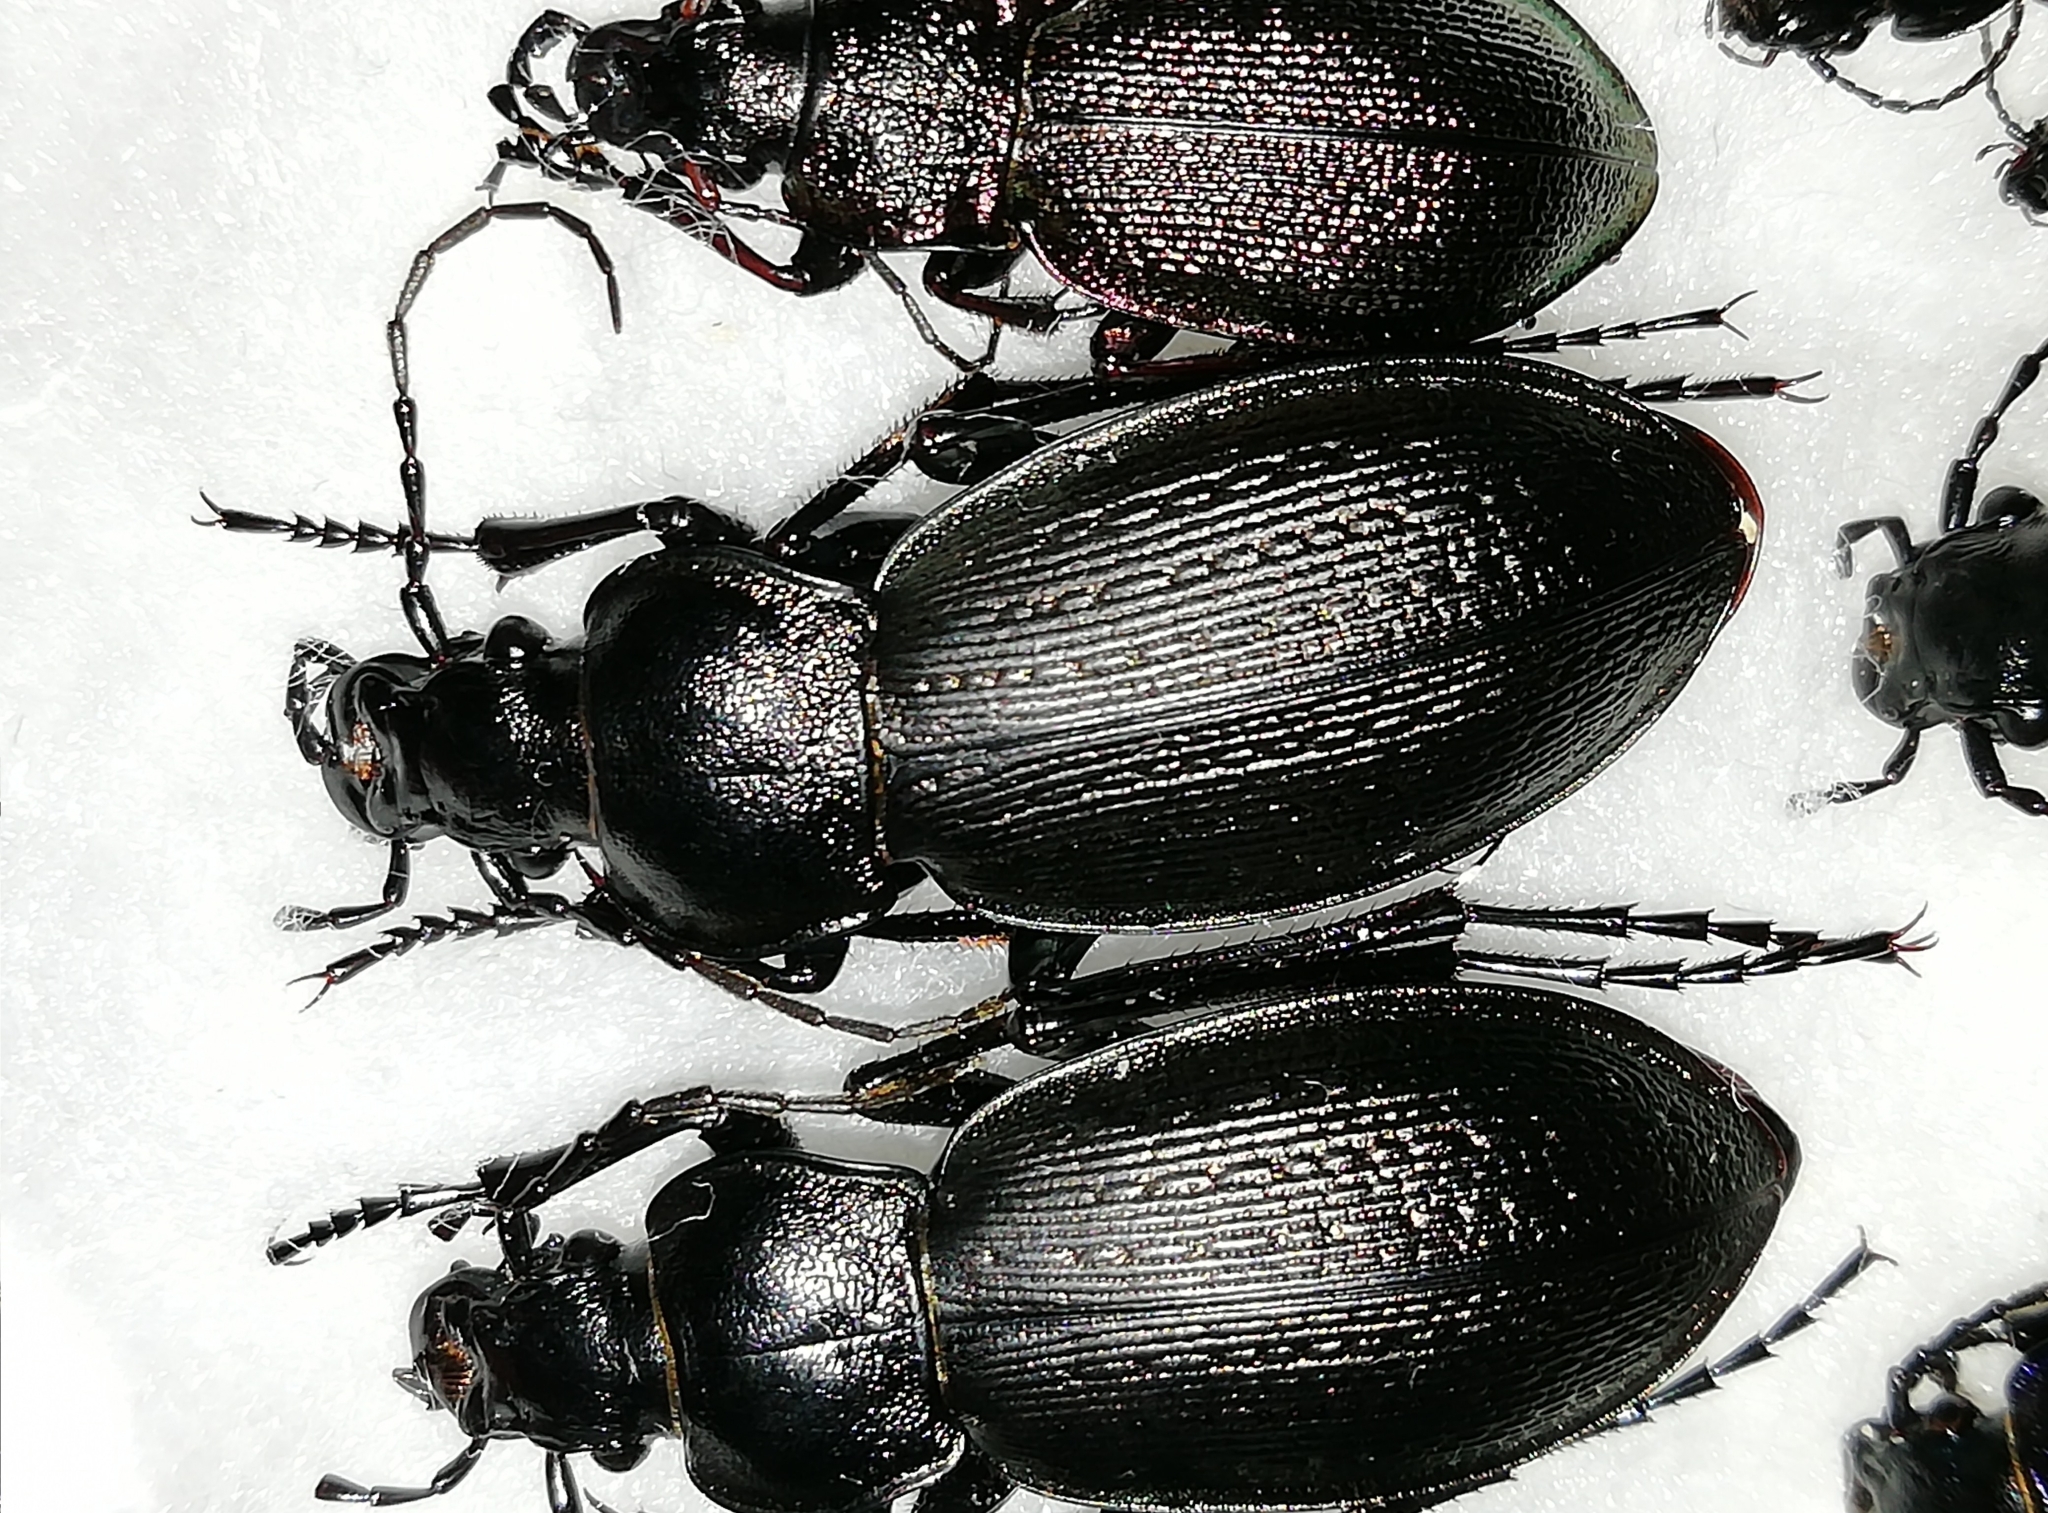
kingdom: Animalia
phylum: Arthropoda
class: Insecta
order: Coleoptera
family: Carabidae
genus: Carabus
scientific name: Carabus spasskianus
